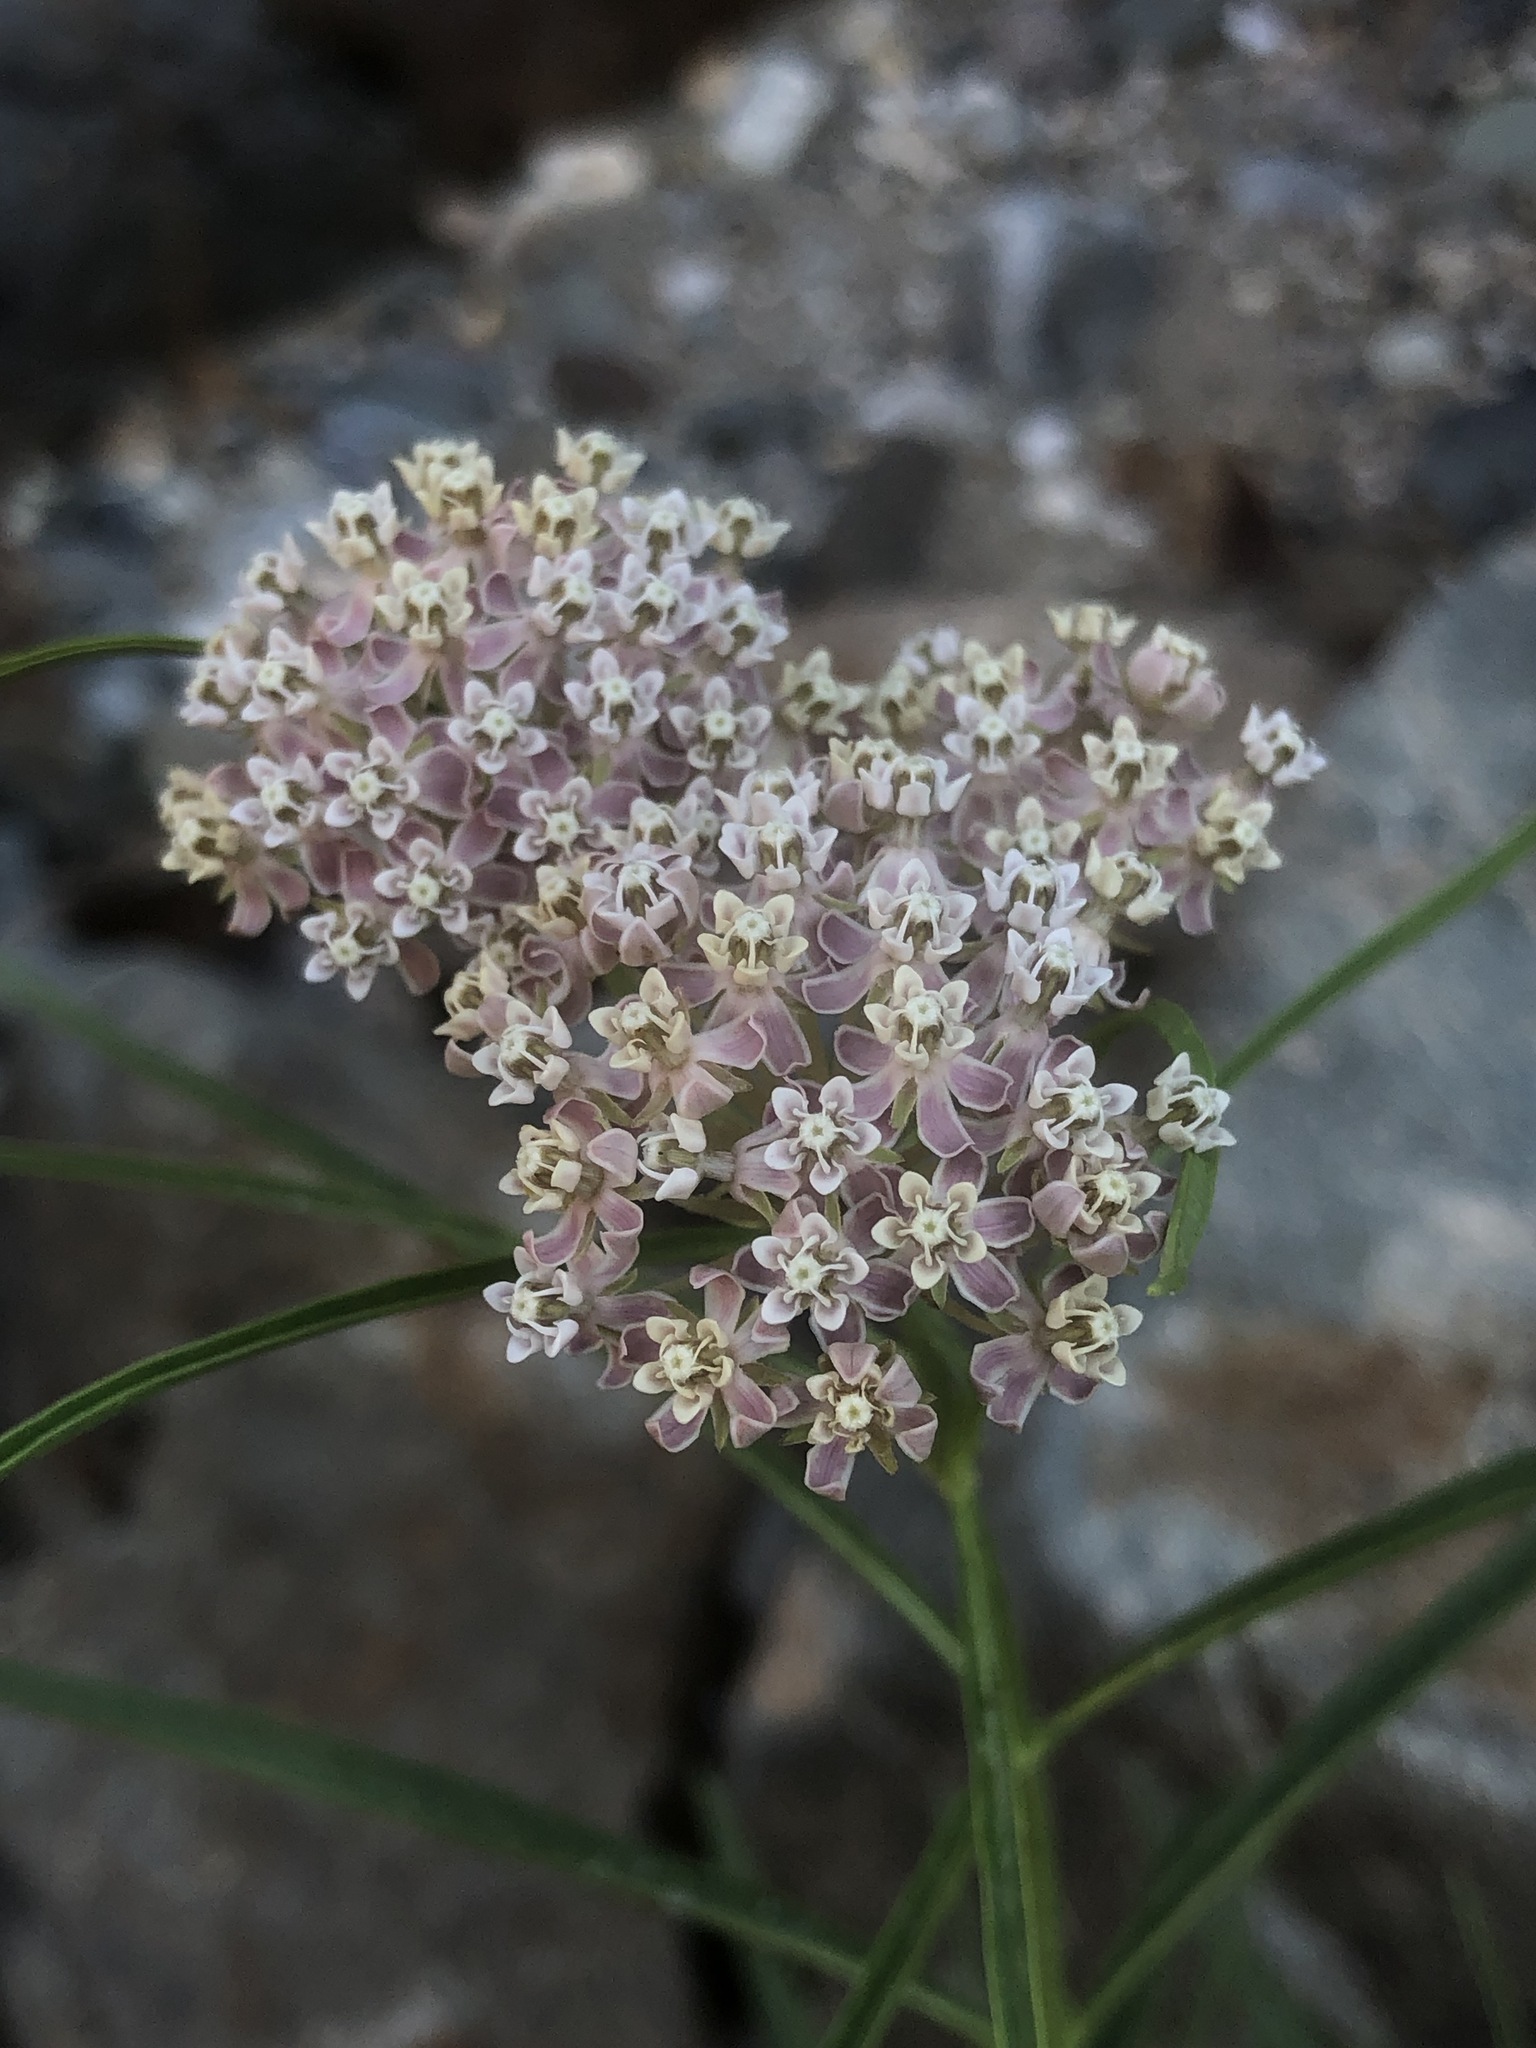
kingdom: Plantae
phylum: Tracheophyta
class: Magnoliopsida
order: Gentianales
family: Apocynaceae
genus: Asclepias
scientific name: Asclepias fascicularis
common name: Mexican milkweed
